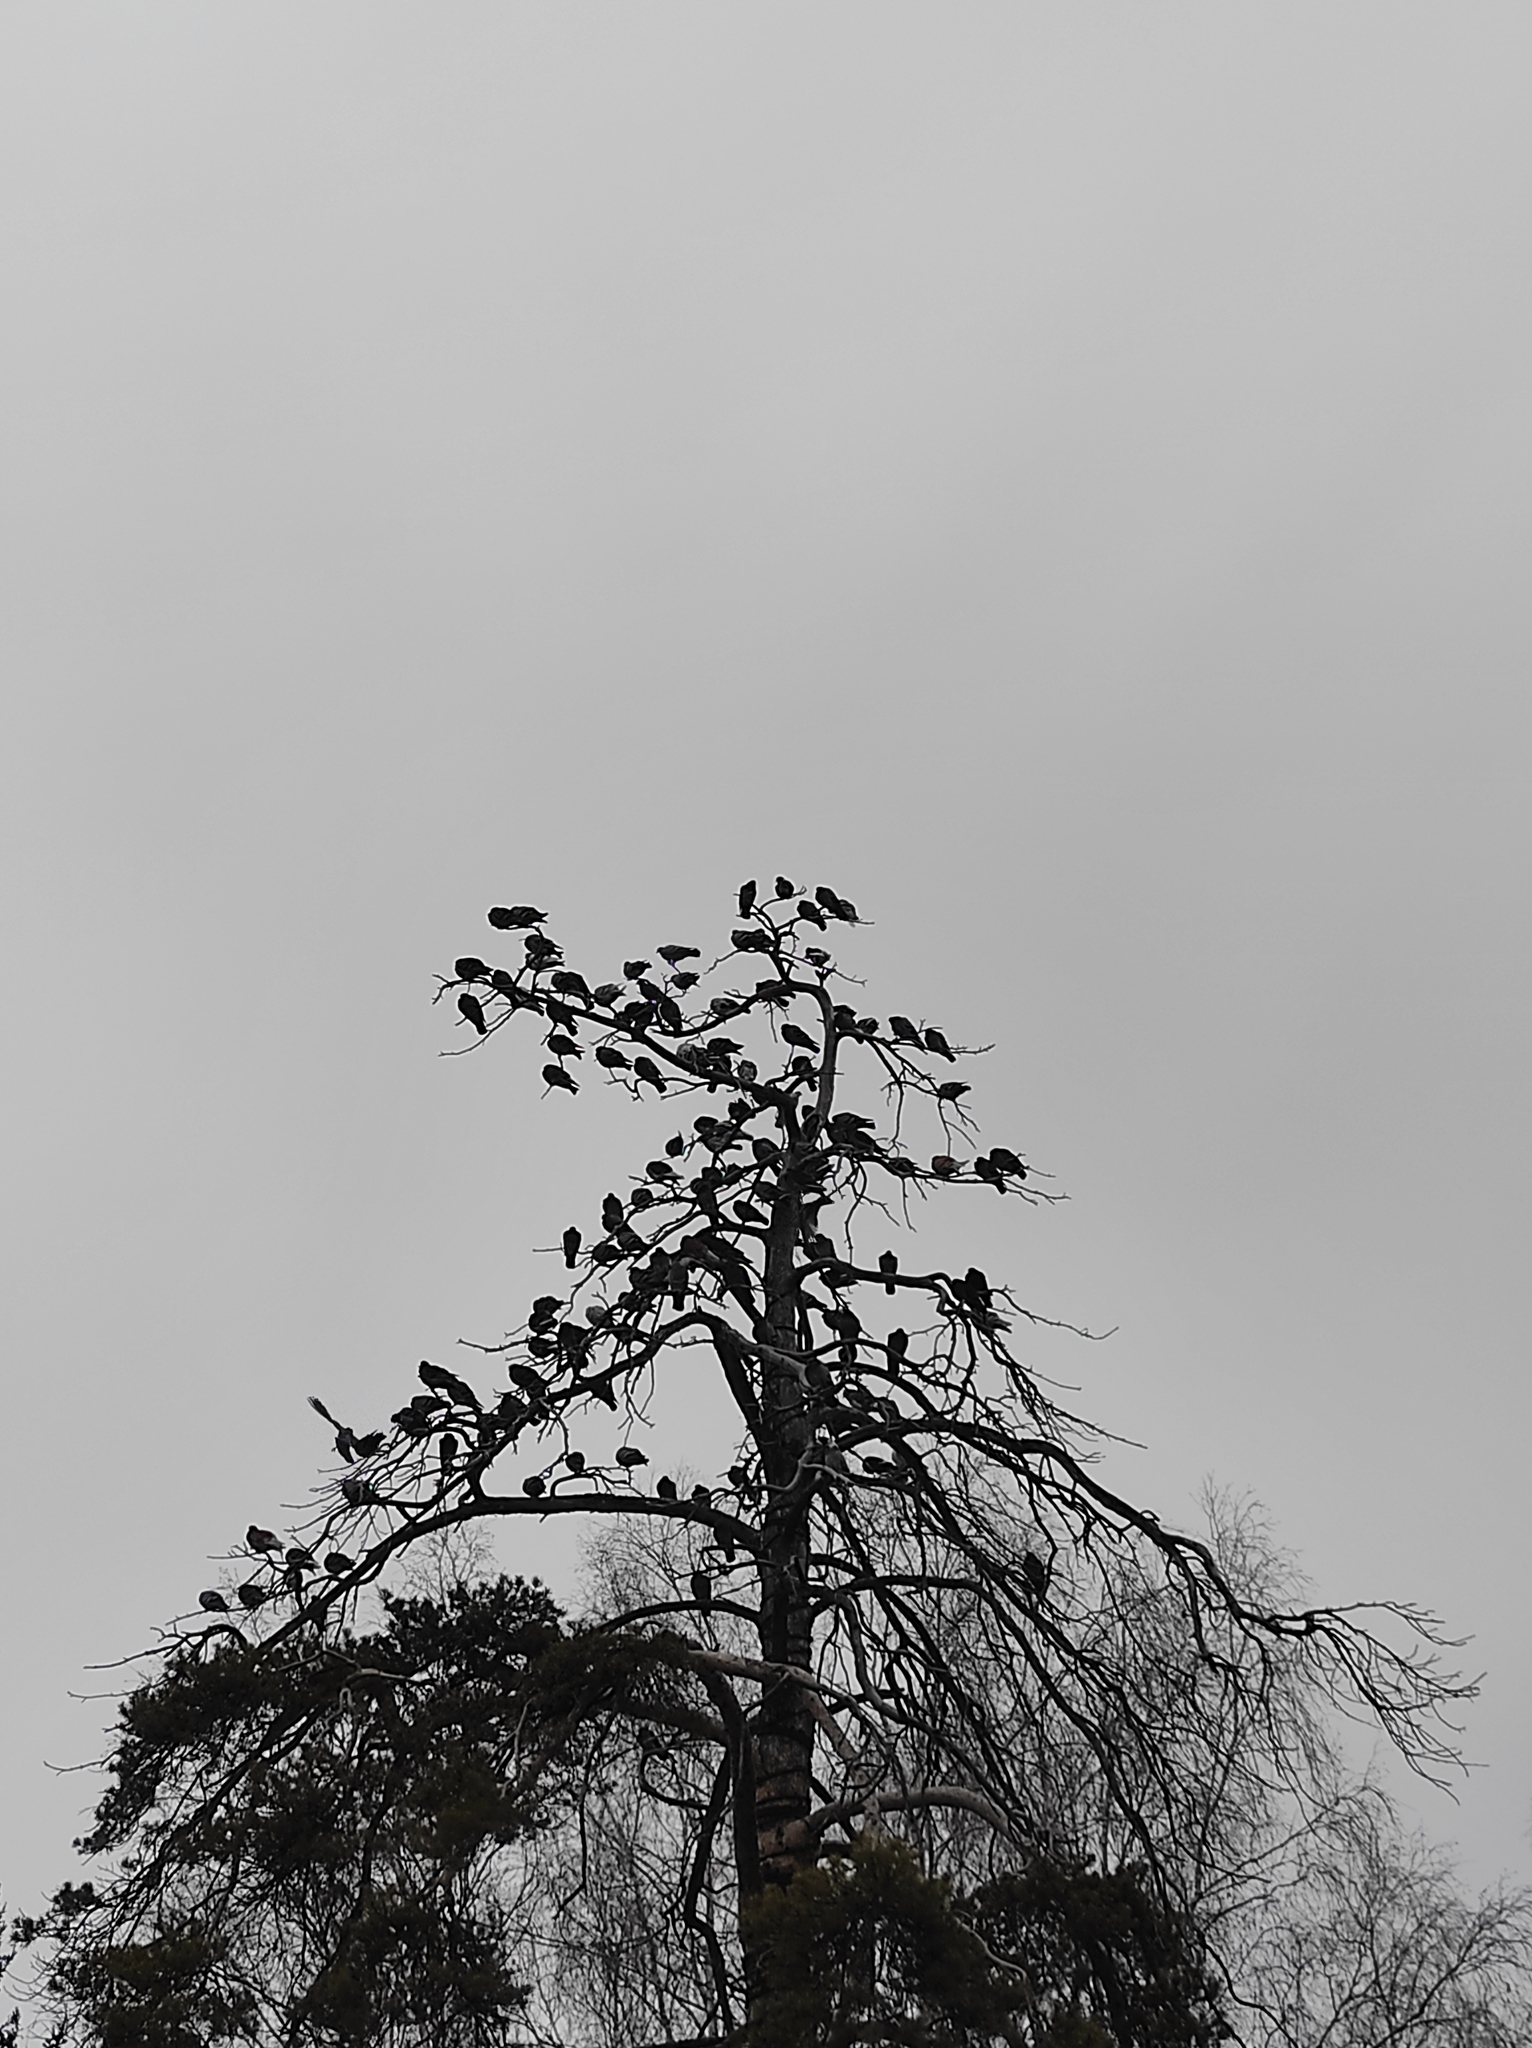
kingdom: Animalia
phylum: Chordata
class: Aves
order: Columbiformes
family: Columbidae
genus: Columba
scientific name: Columba livia
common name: Rock pigeon
